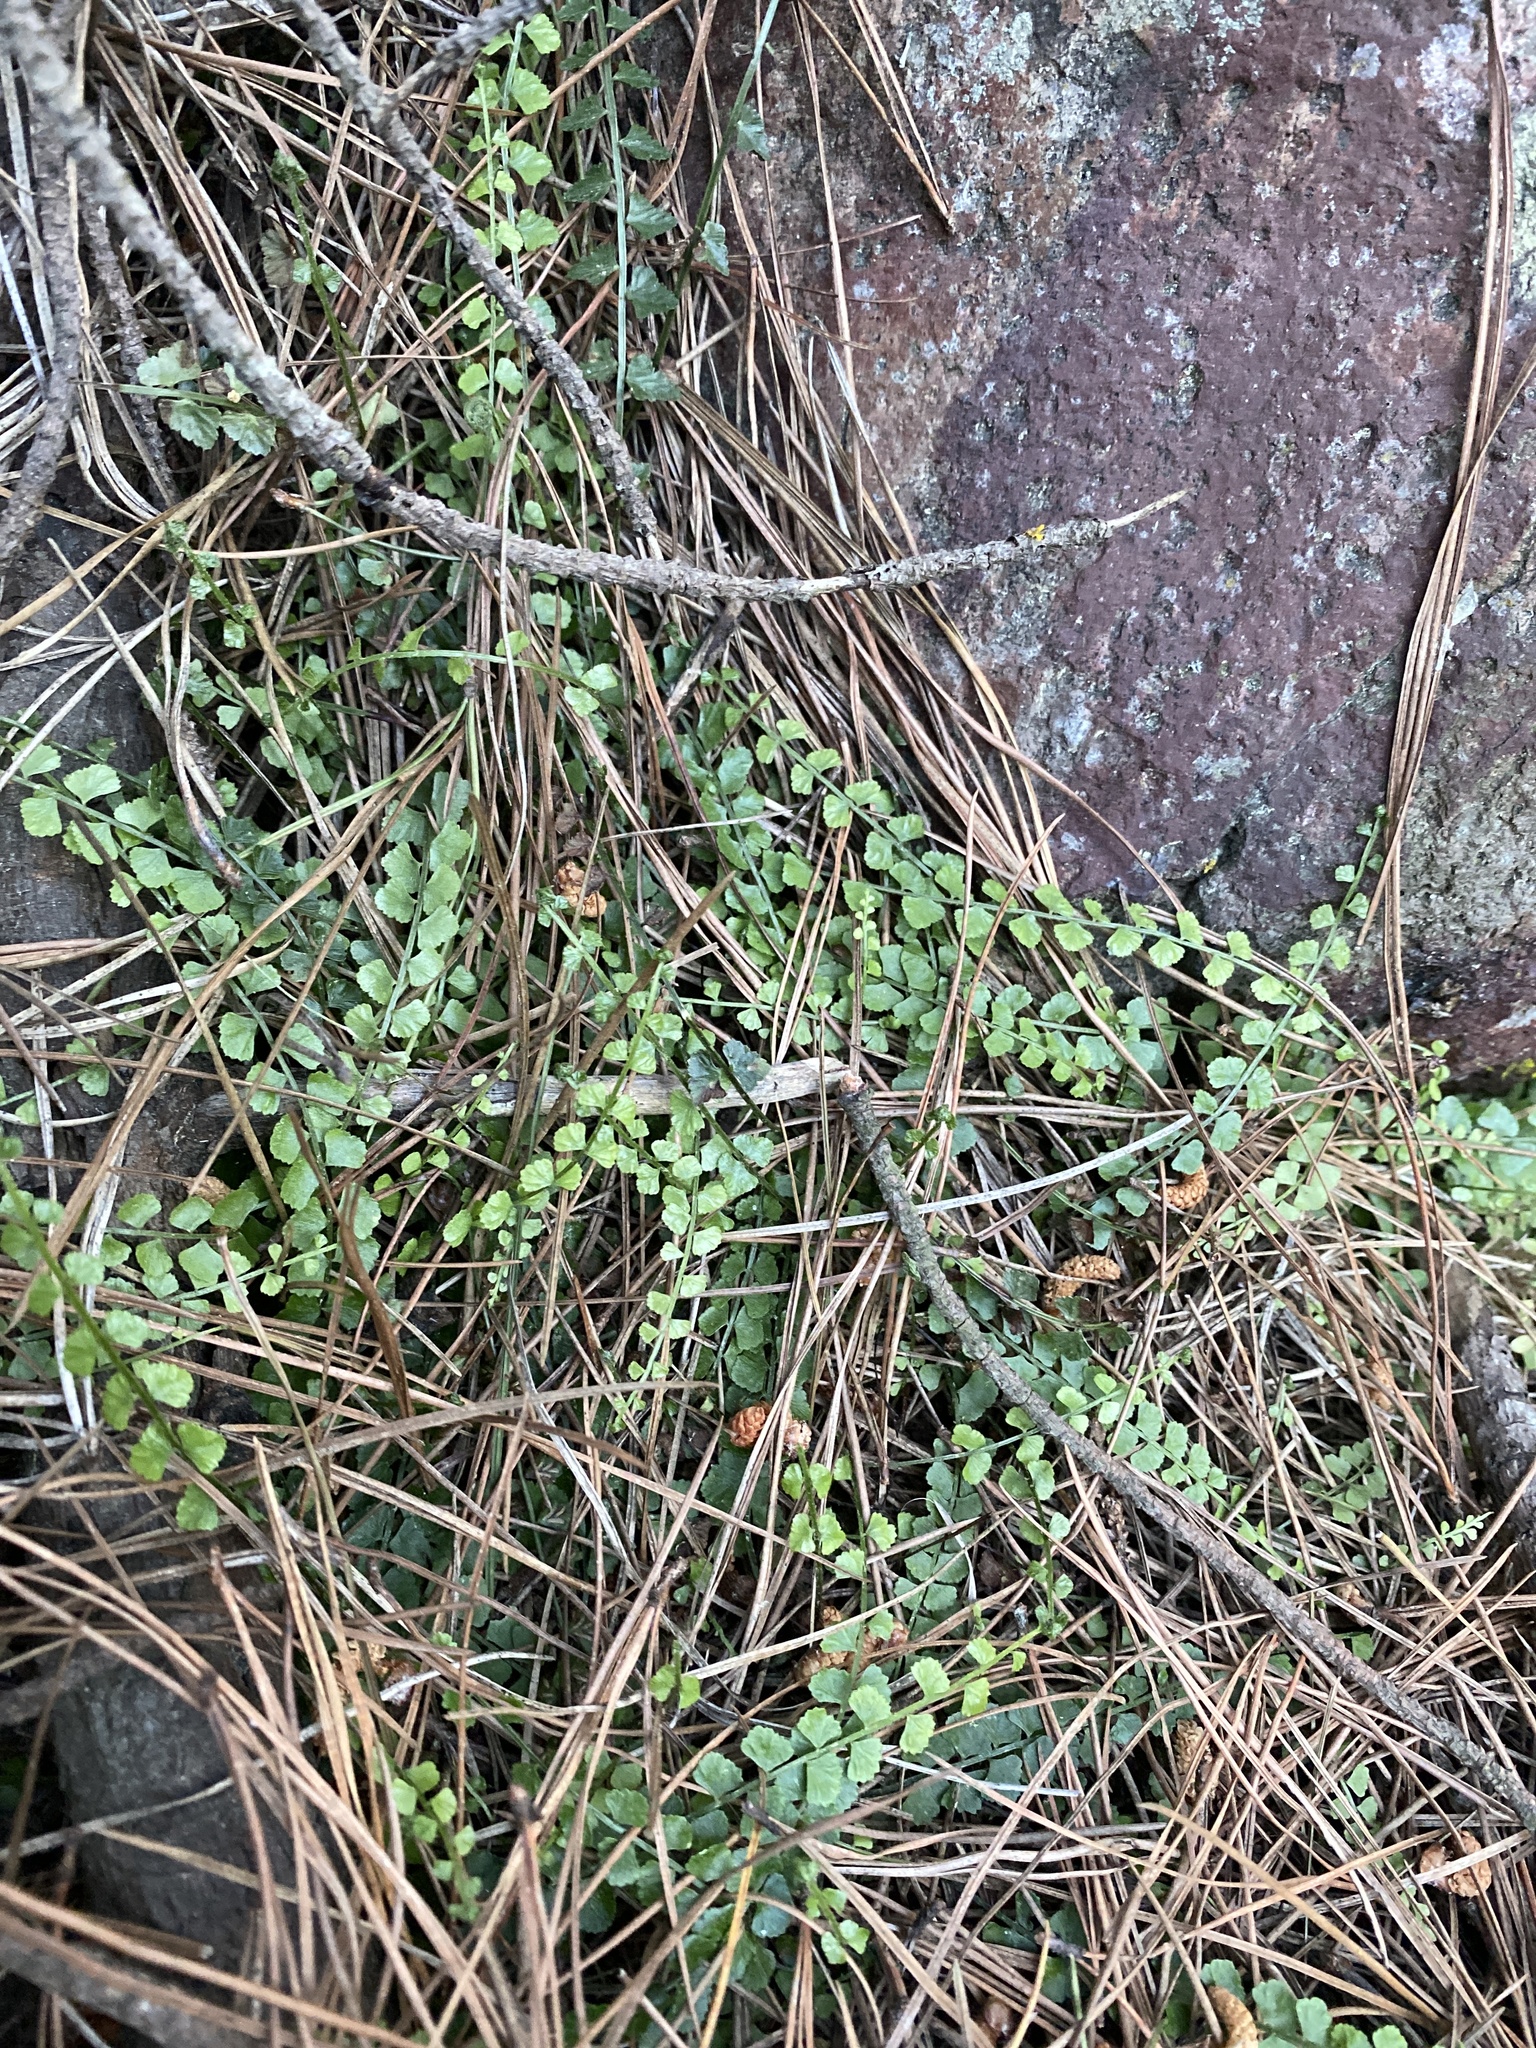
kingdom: Plantae
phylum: Tracheophyta
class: Polypodiopsida
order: Polypodiales
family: Aspleniaceae
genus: Asplenium
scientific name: Asplenium flabellifolium
